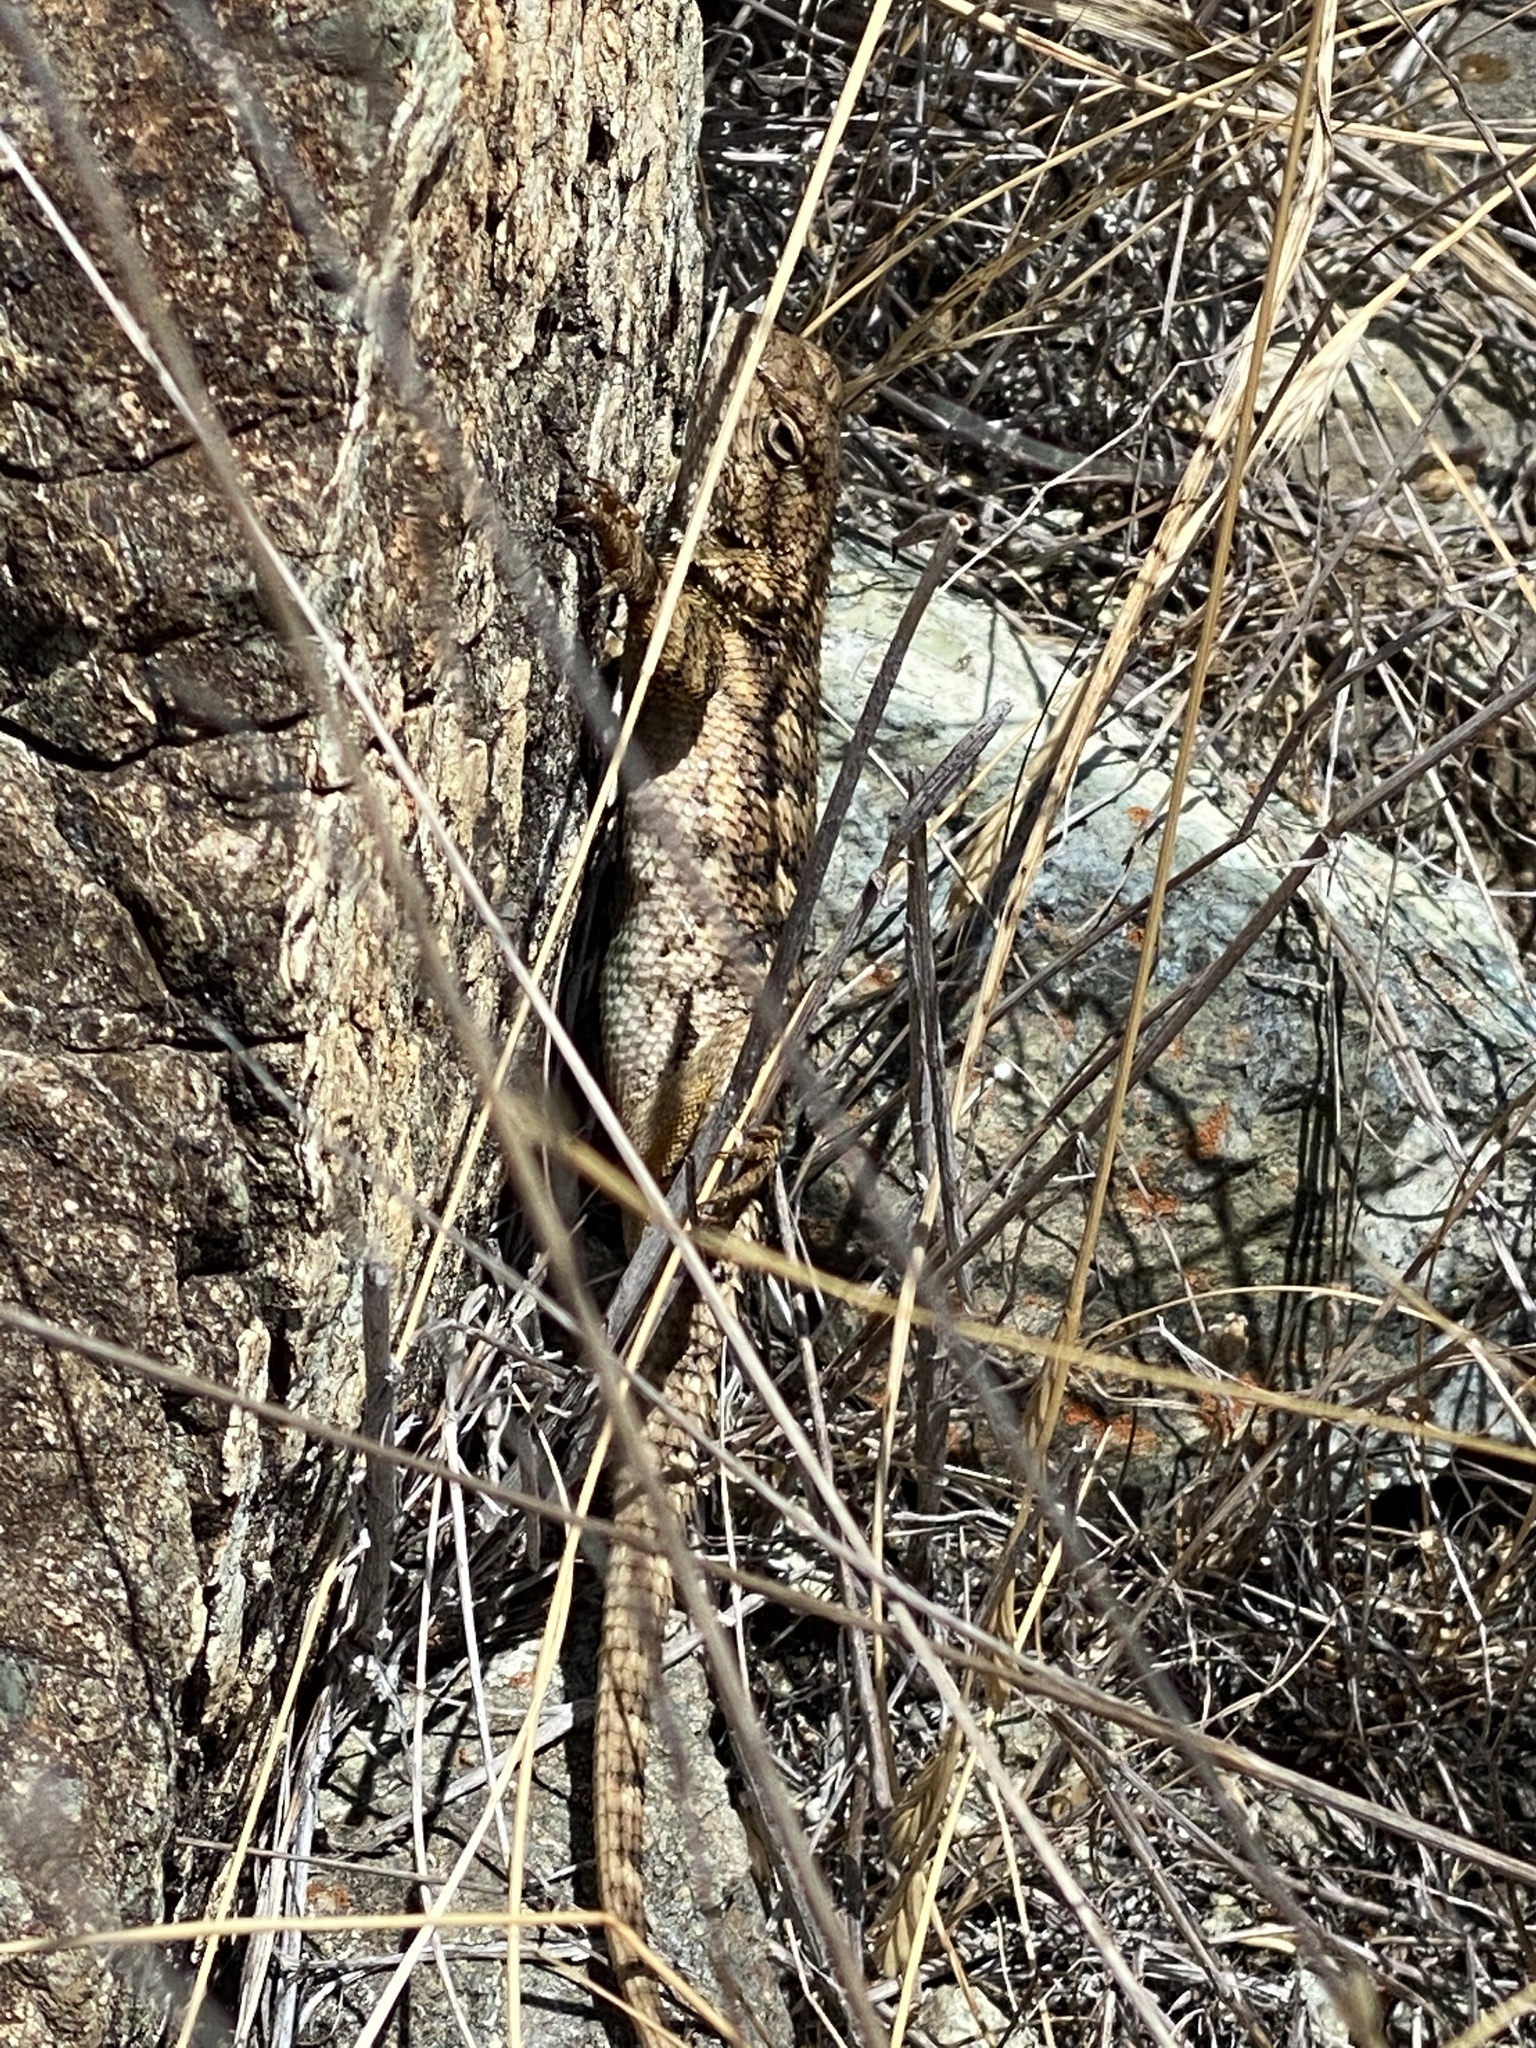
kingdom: Animalia
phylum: Chordata
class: Squamata
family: Phrynosomatidae
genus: Sceloporus
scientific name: Sceloporus occidentalis
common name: Western fence lizard
